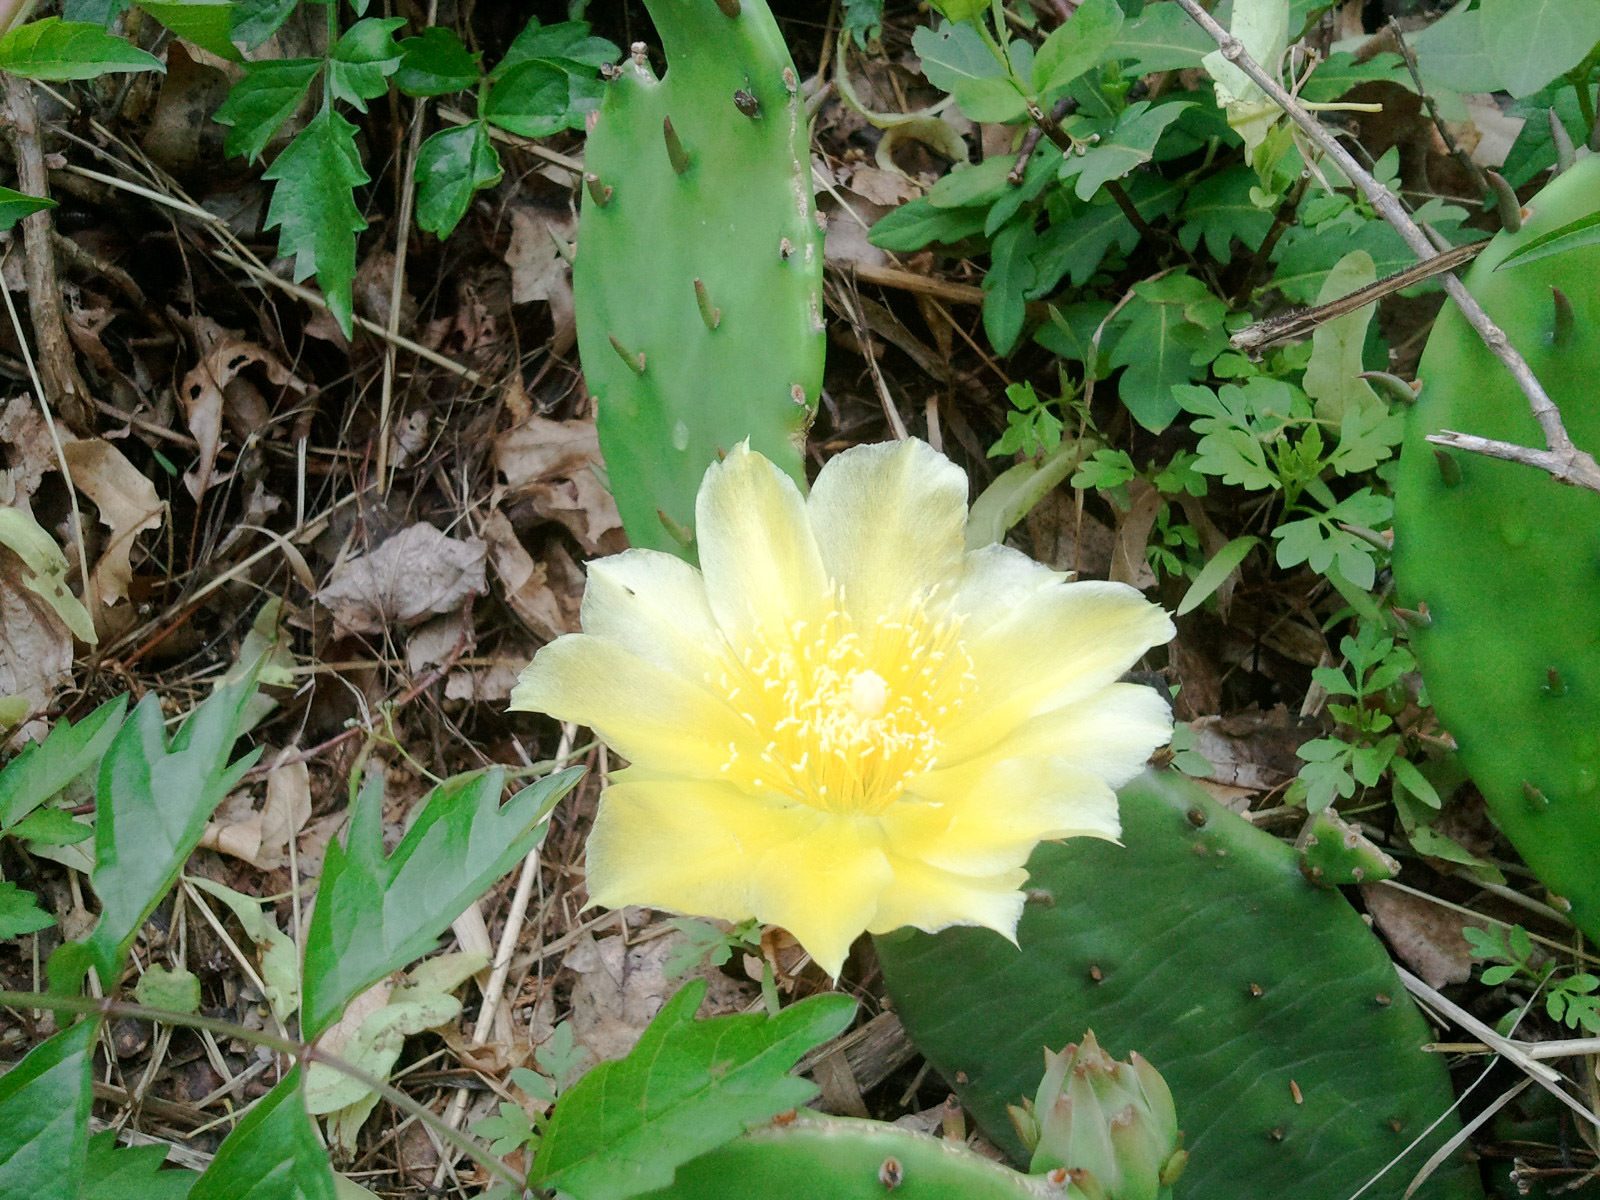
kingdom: Plantae
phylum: Tracheophyta
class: Magnoliopsida
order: Caryophyllales
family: Cactaceae
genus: Opuntia
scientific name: Opuntia humifusa
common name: Eastern prickly-pear
